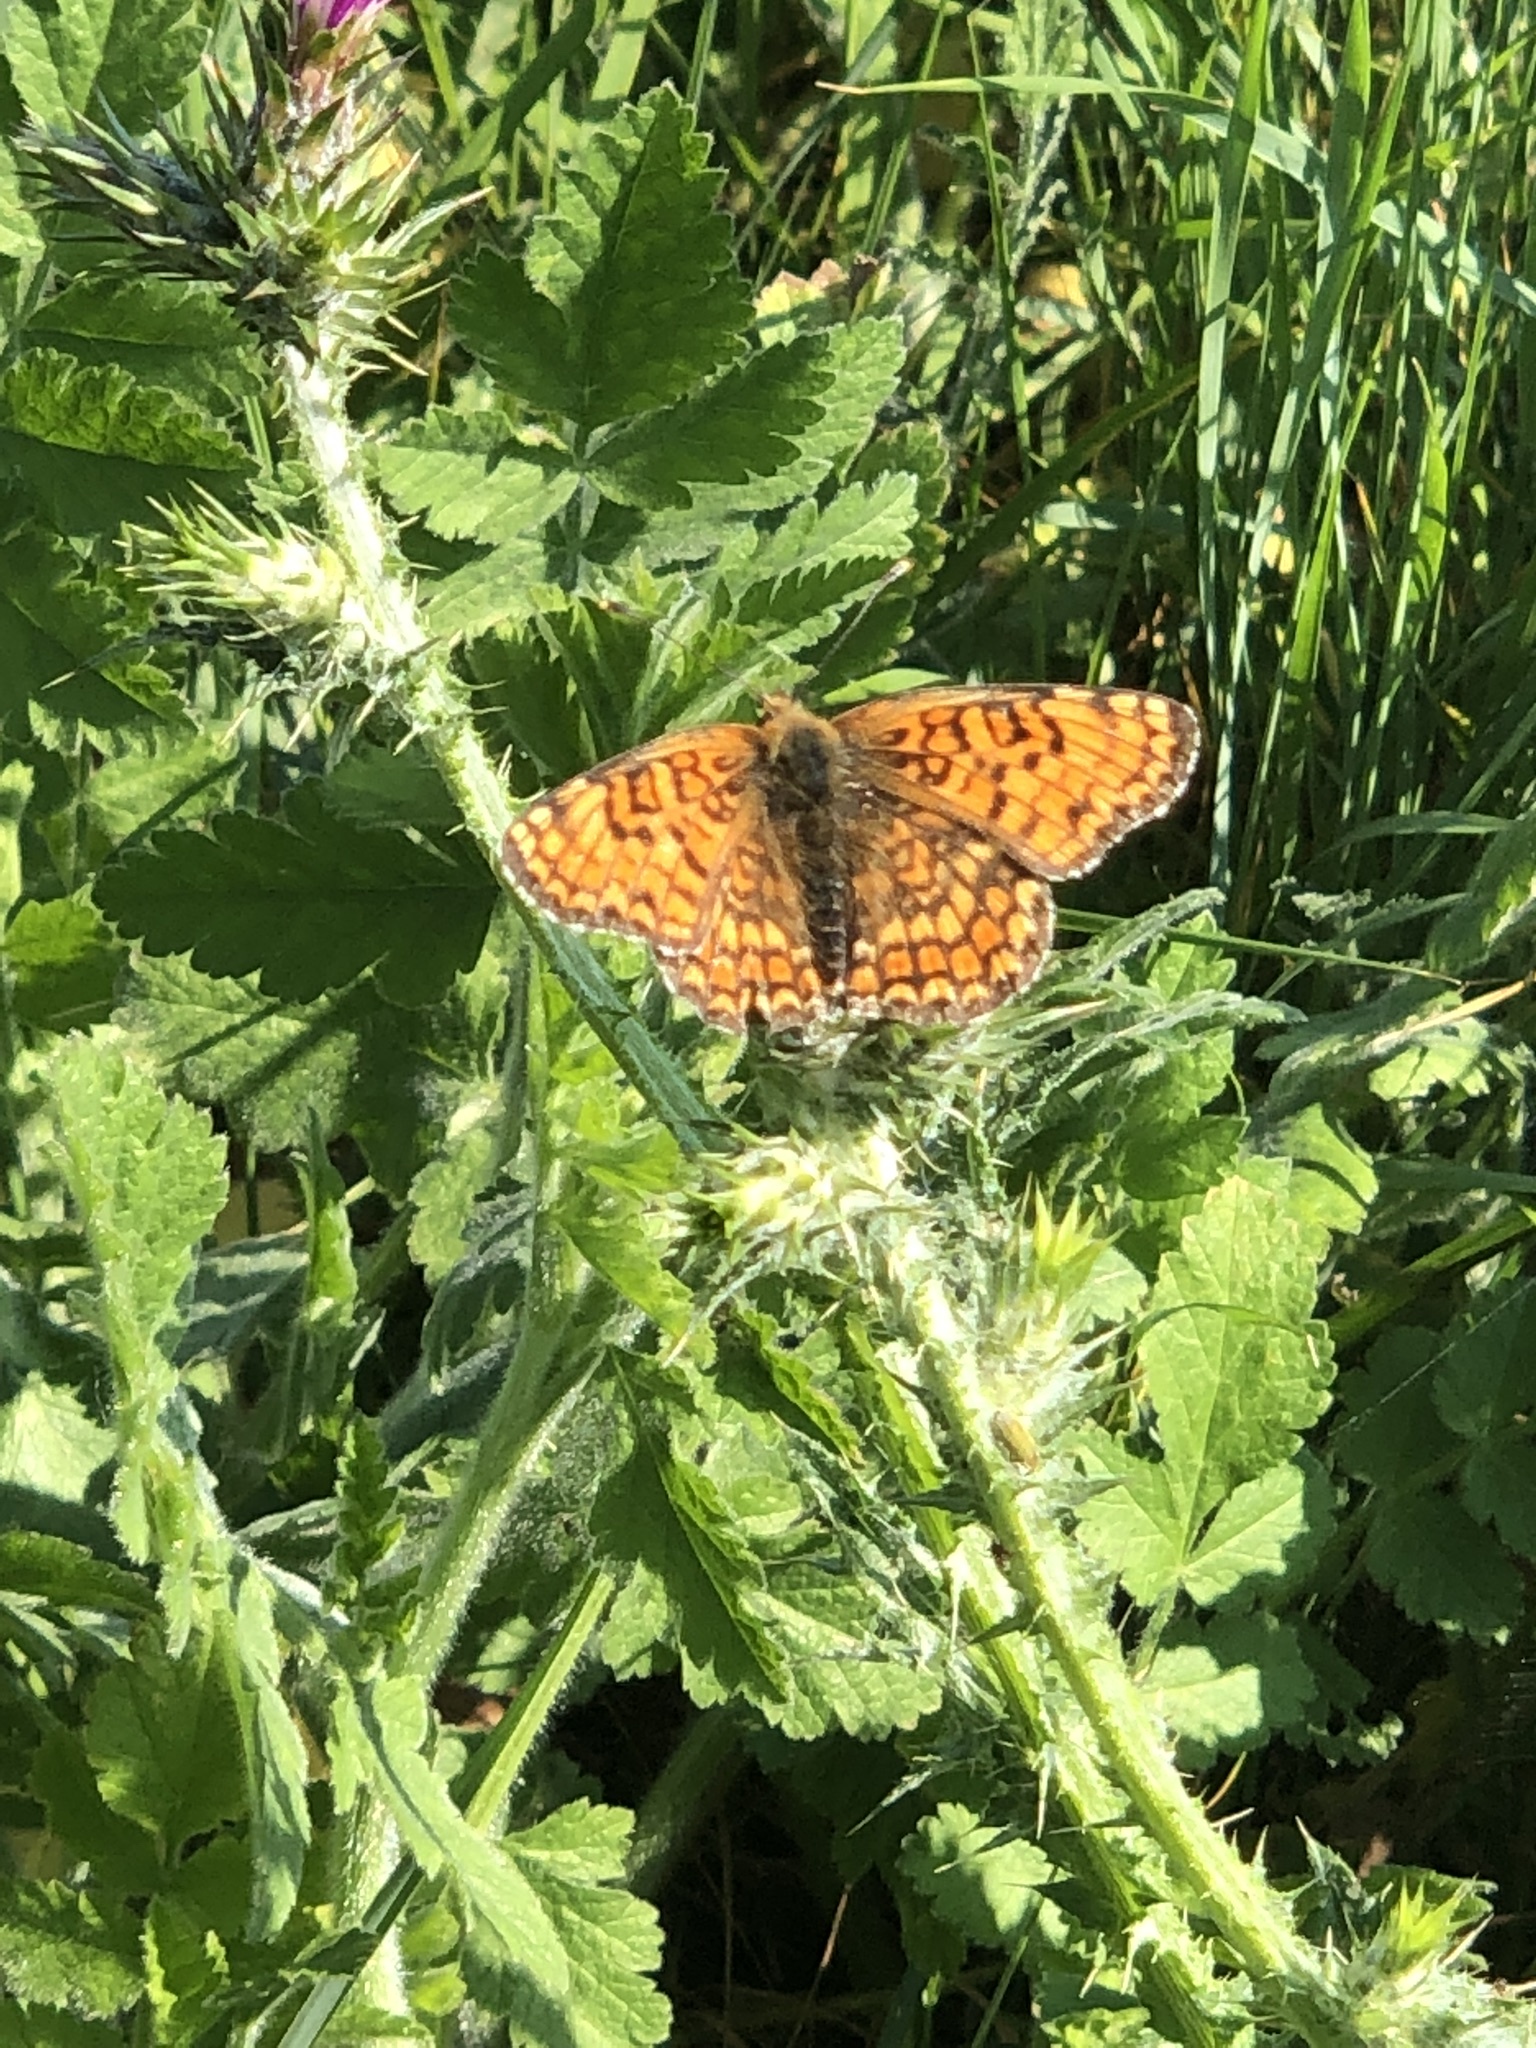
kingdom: Animalia
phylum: Arthropoda
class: Insecta
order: Lepidoptera
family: Nymphalidae
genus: Melitaea
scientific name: Melitaea phoebe
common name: Knapweed fritillary
